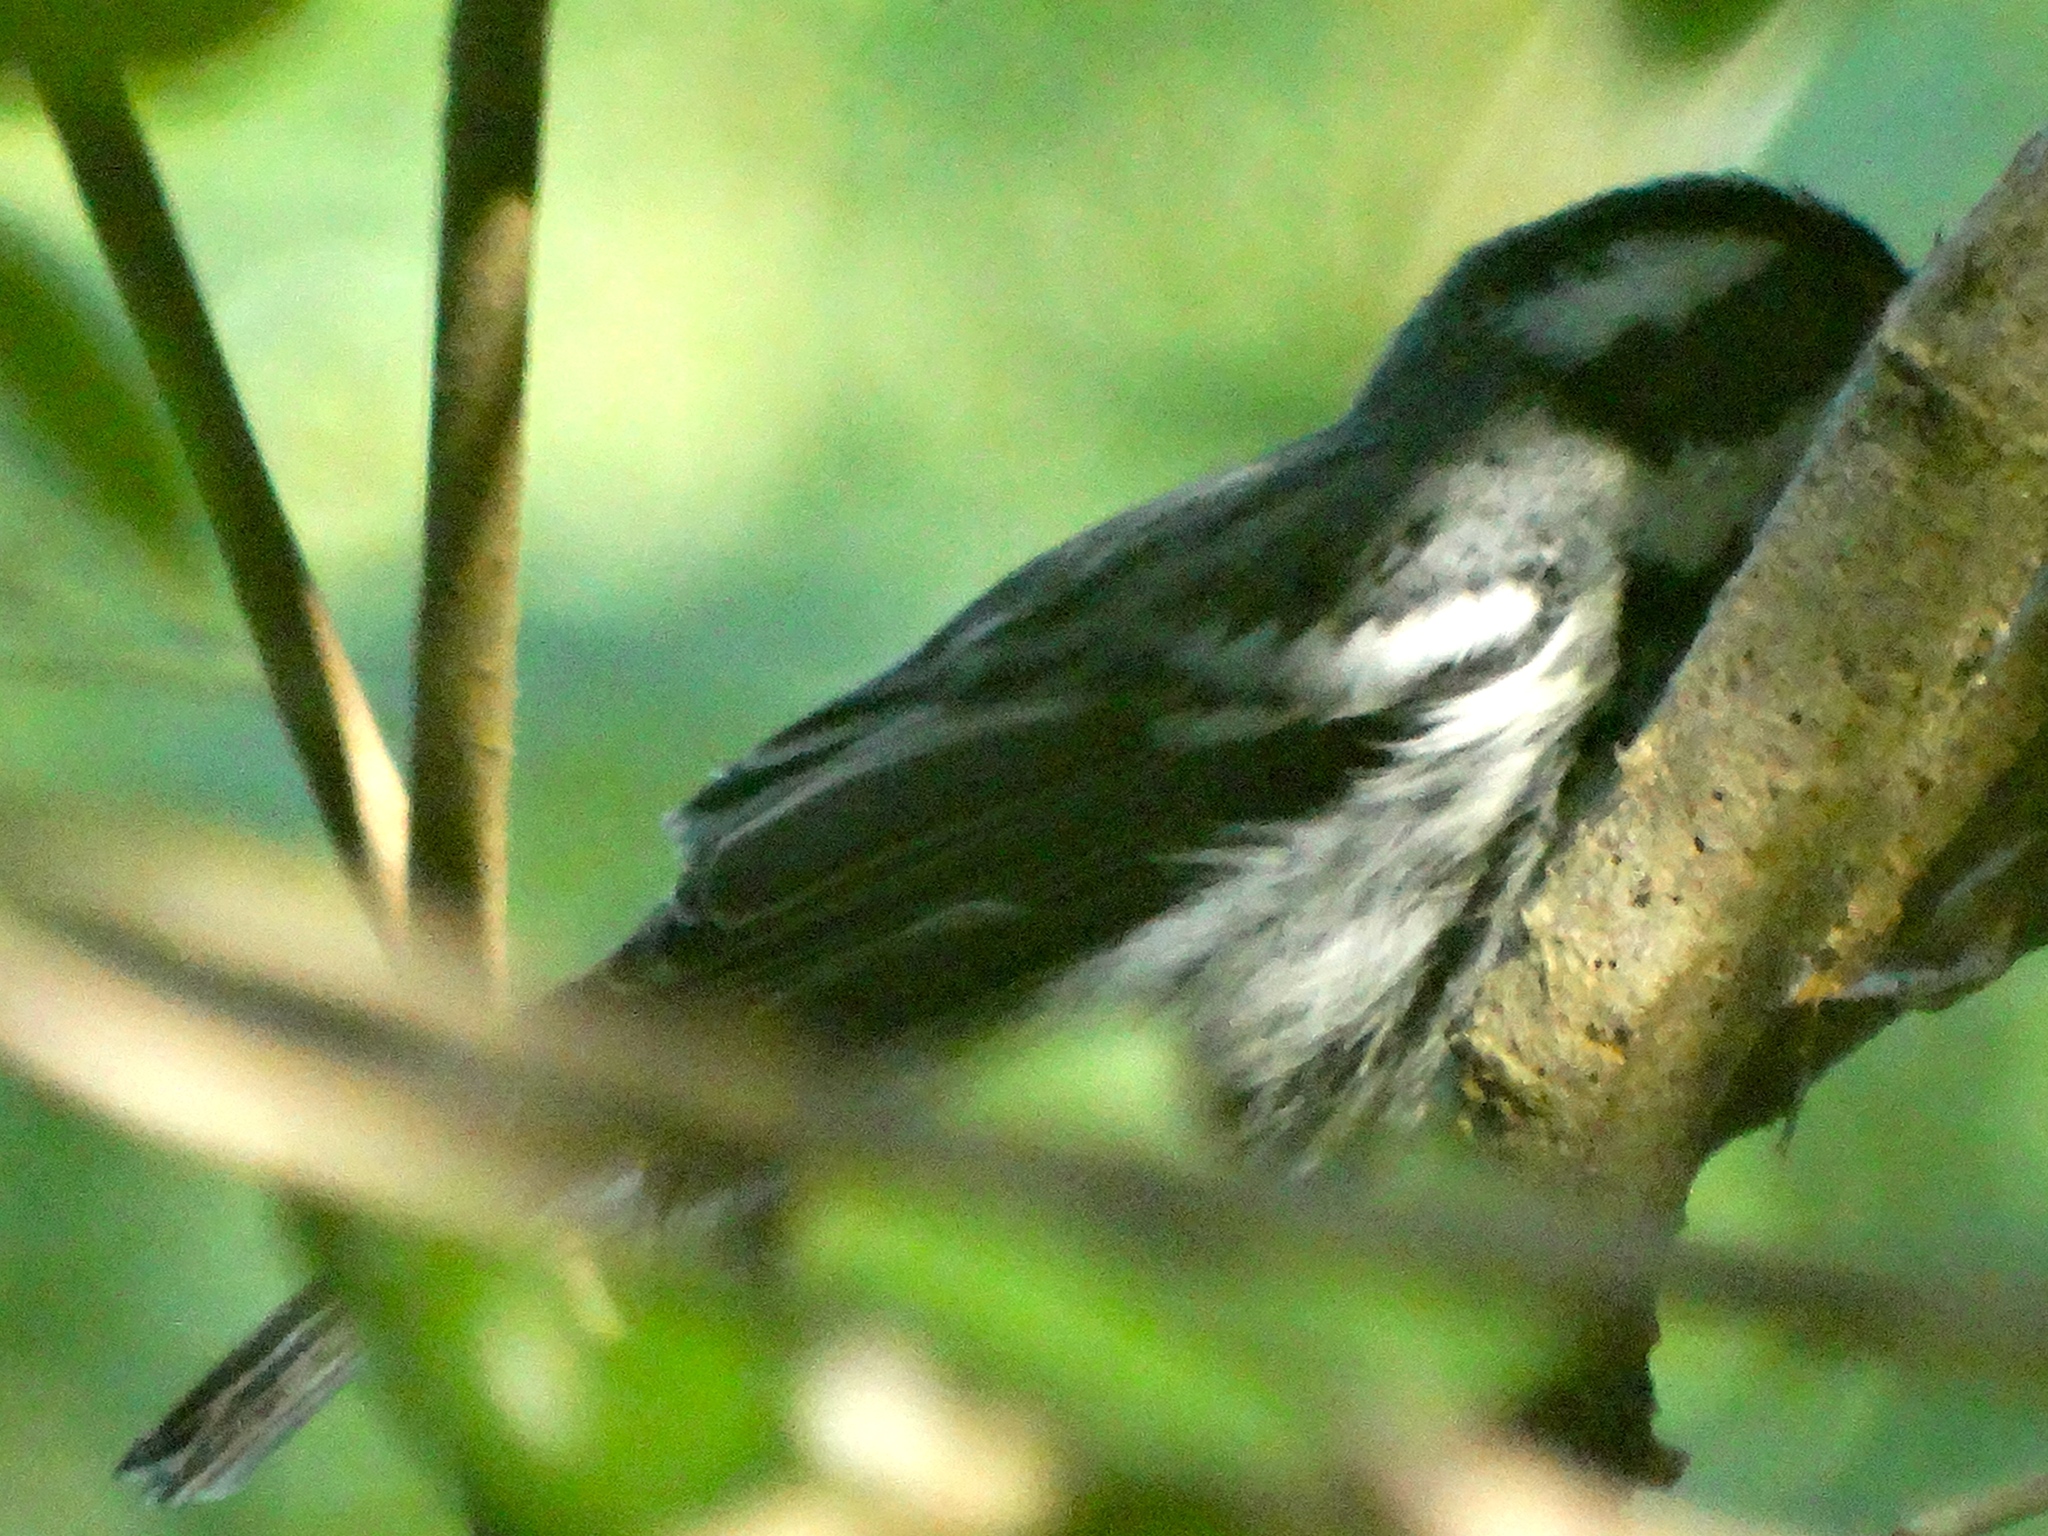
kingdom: Animalia
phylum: Chordata
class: Aves
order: Passeriformes
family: Parulidae
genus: Setophaga
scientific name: Setophaga nigrescens
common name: Black-throated gray warbler
